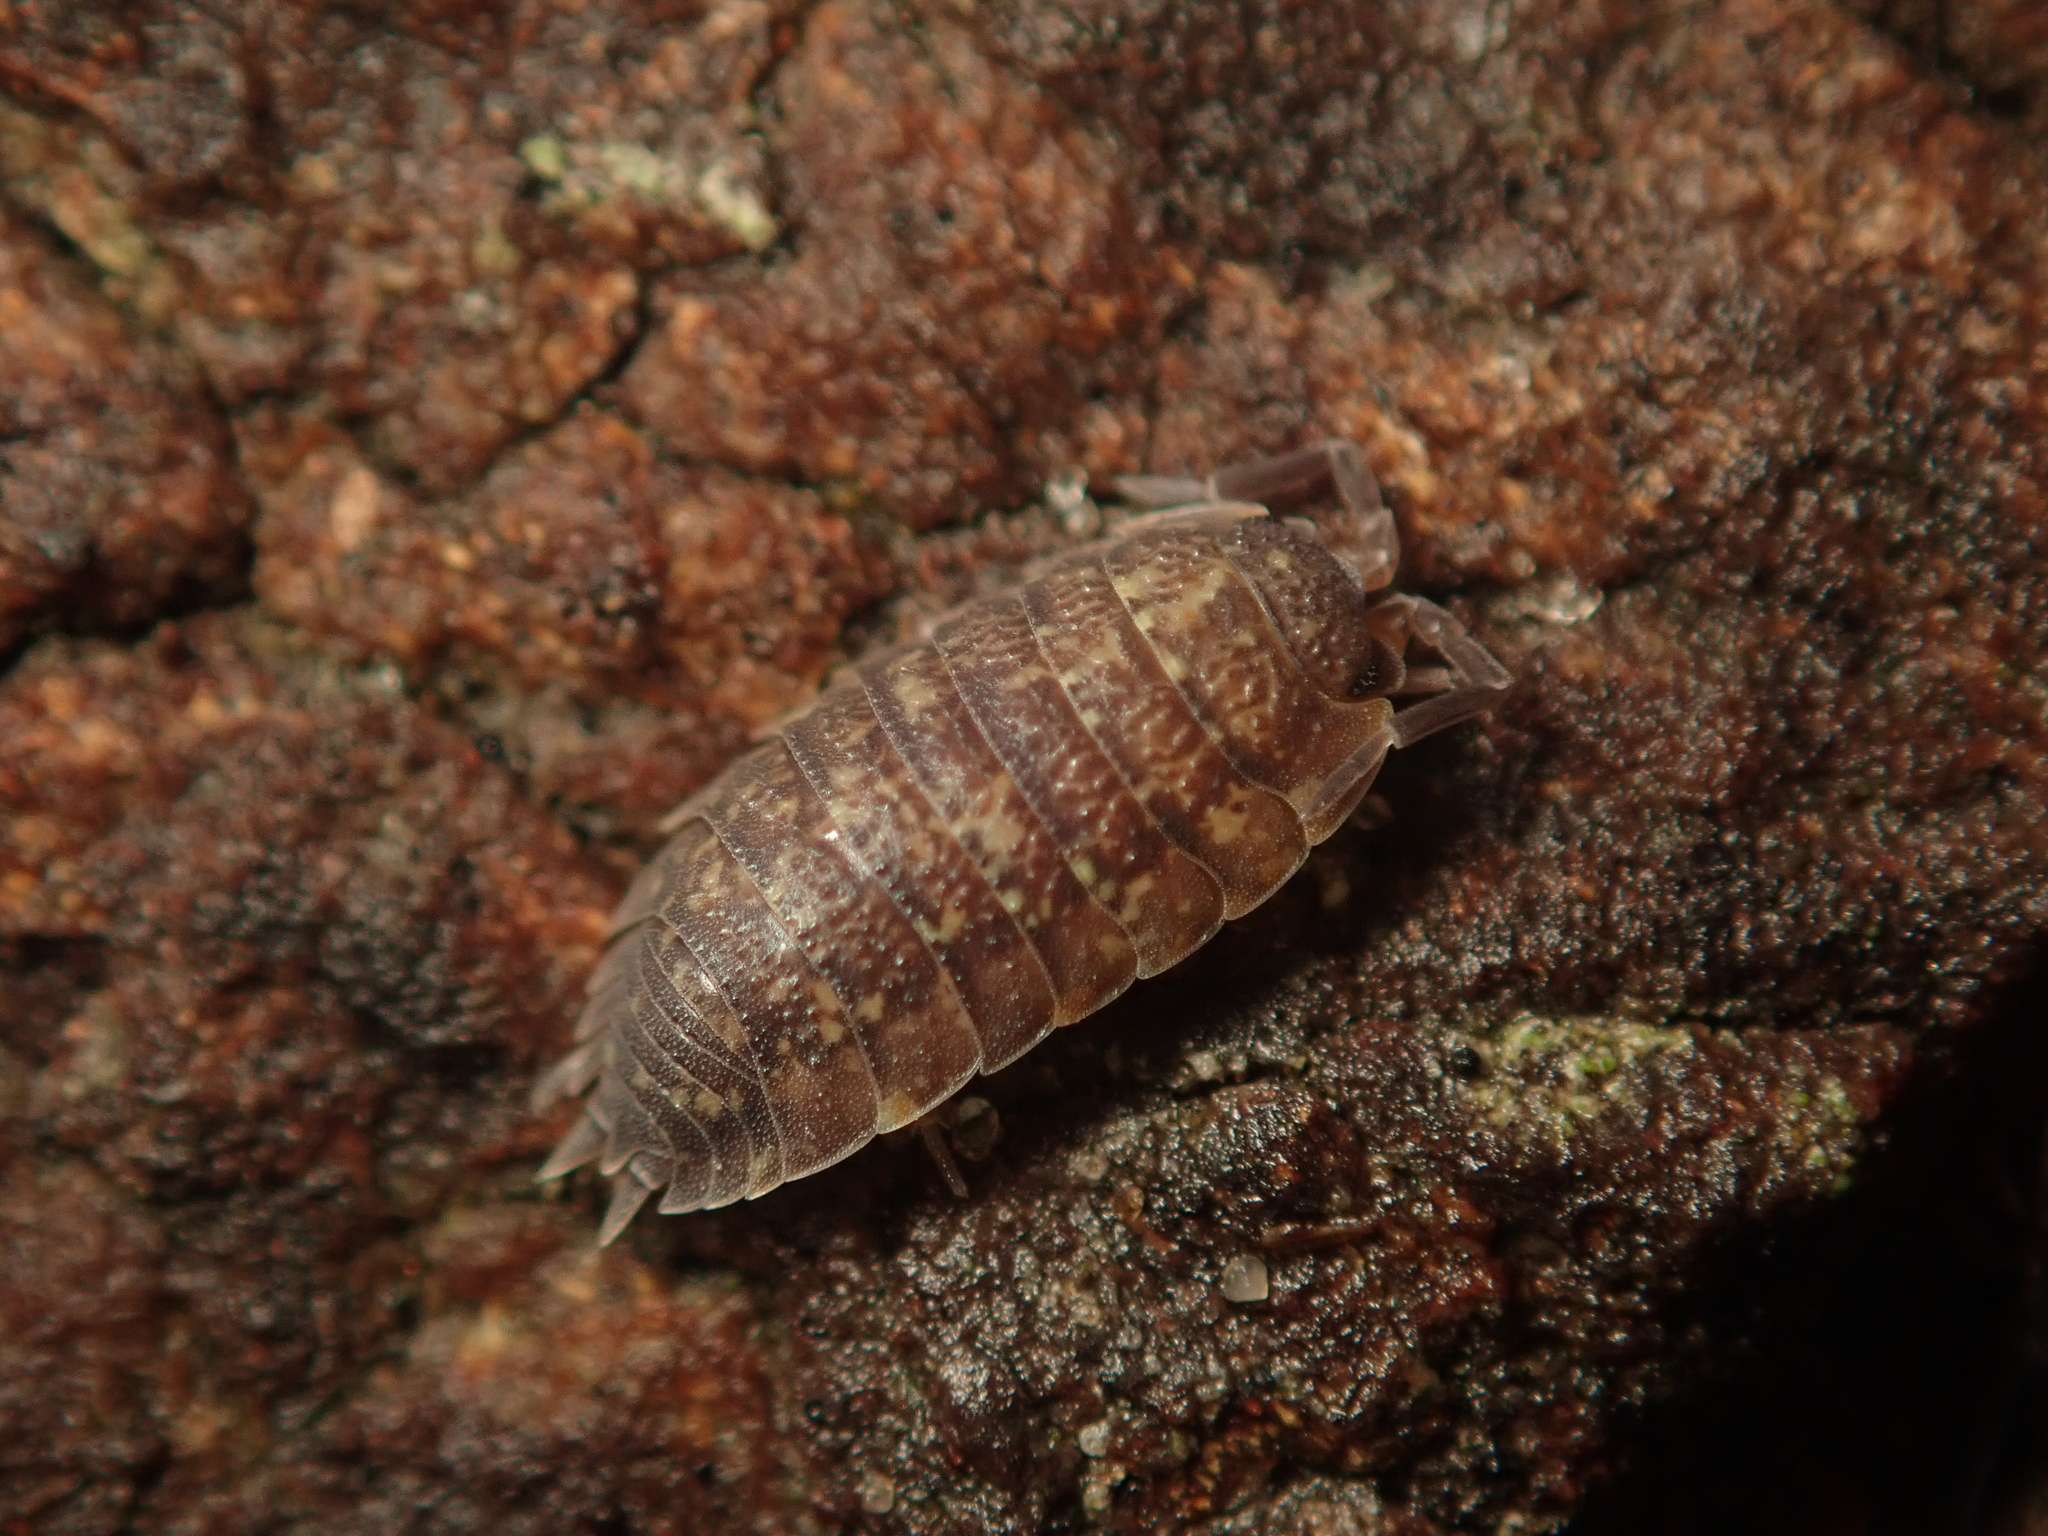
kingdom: Animalia
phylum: Arthropoda
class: Malacostraca
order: Isopoda
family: Porcellionidae
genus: Porcellio
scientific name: Porcellio scaber
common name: Common rough woodlouse
